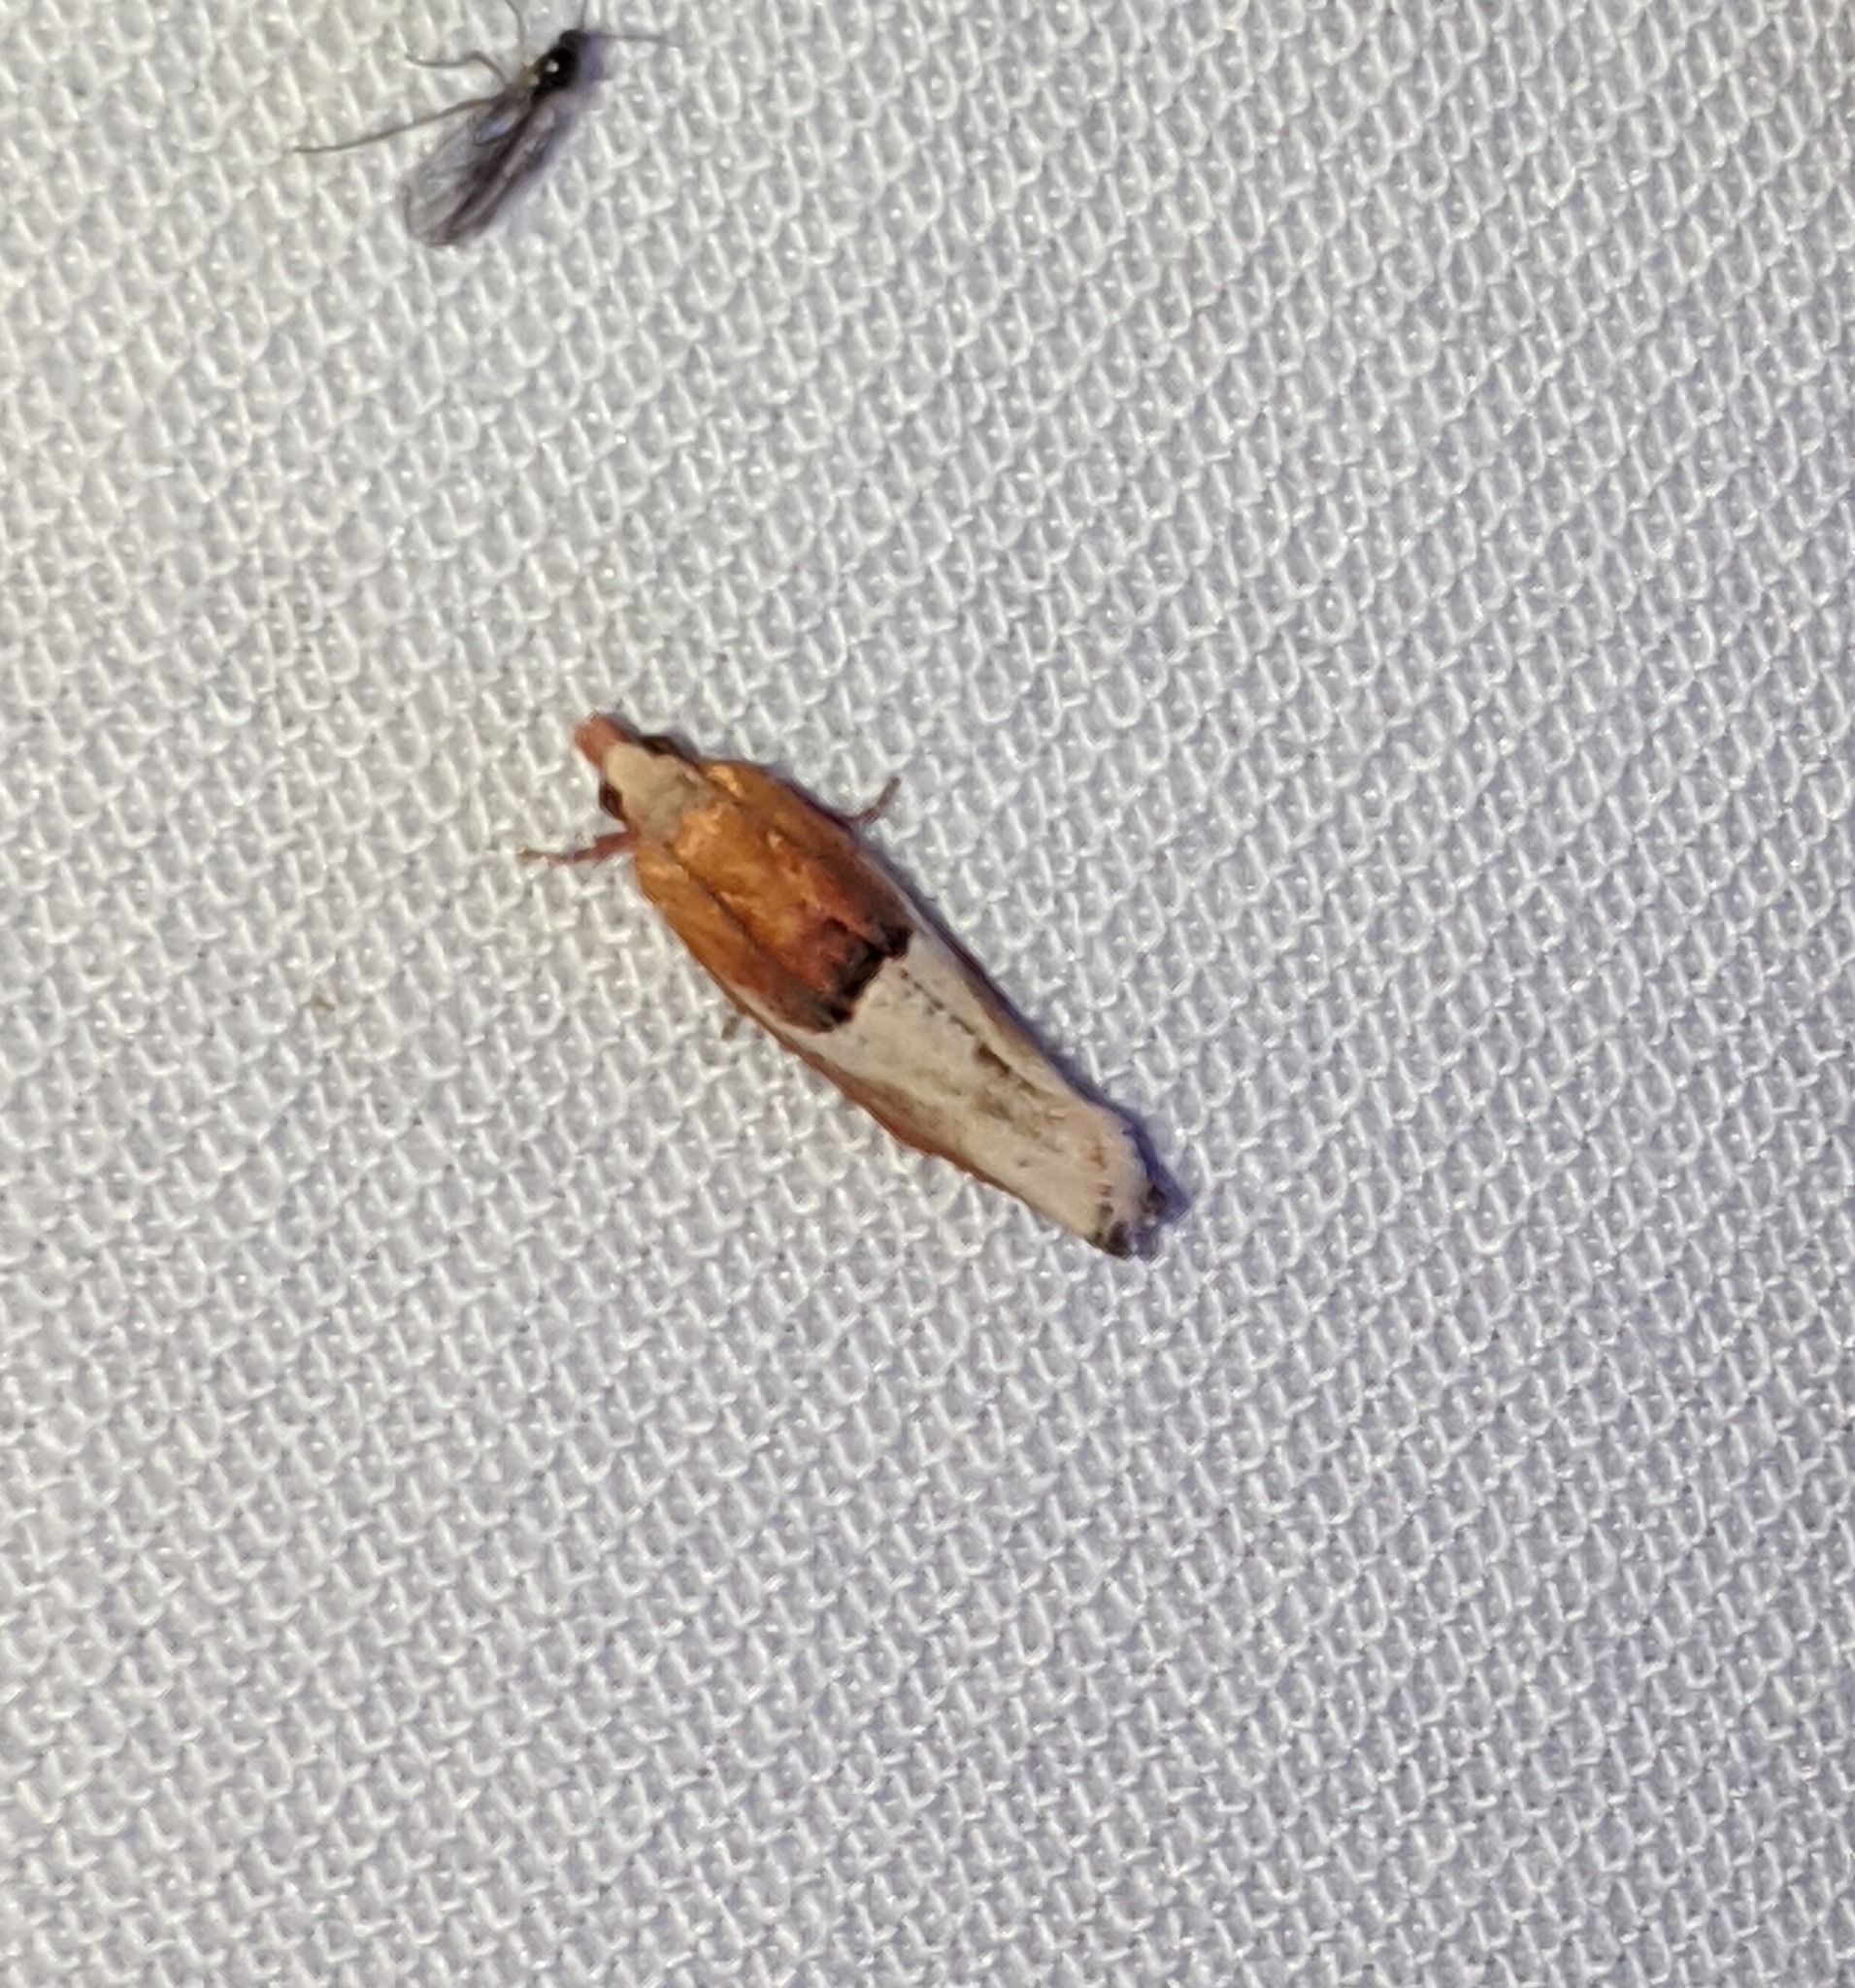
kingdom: Animalia
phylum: Arthropoda
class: Insecta
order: Lepidoptera
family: Tortricidae
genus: Epinotia
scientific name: Epinotia johnsonana
